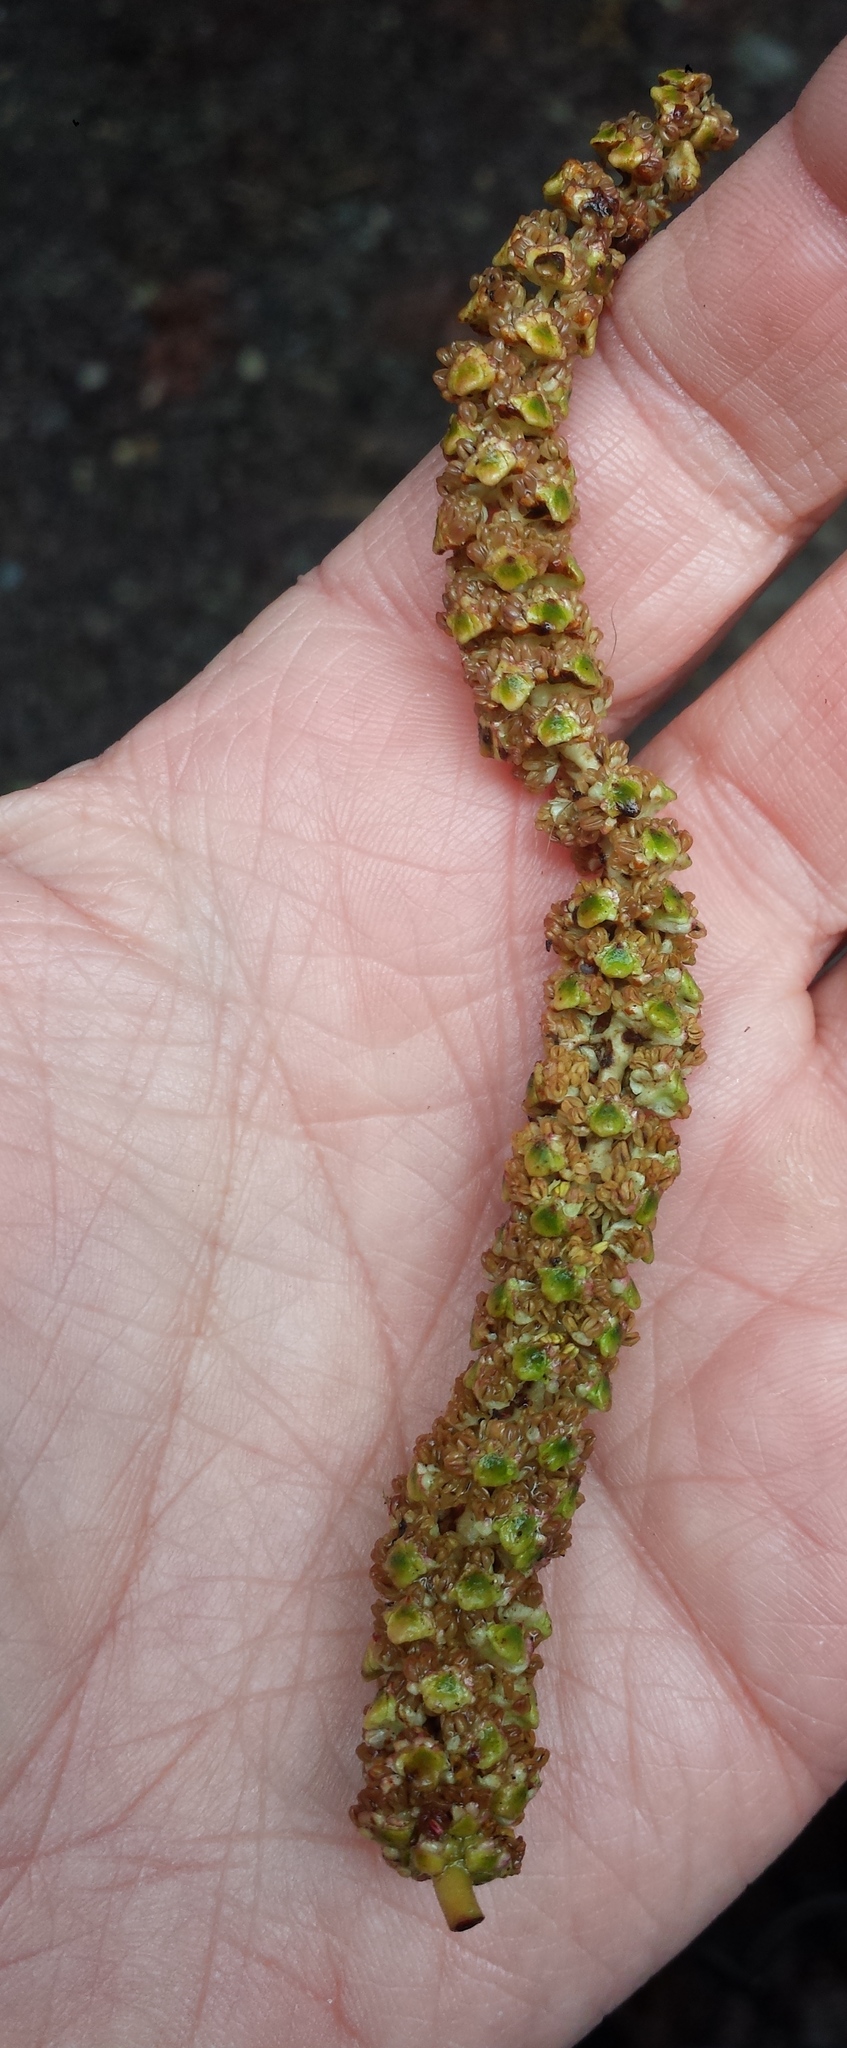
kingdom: Plantae
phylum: Tracheophyta
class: Magnoliopsida
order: Fagales
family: Betulaceae
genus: Alnus
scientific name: Alnus rubra
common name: Red alder
